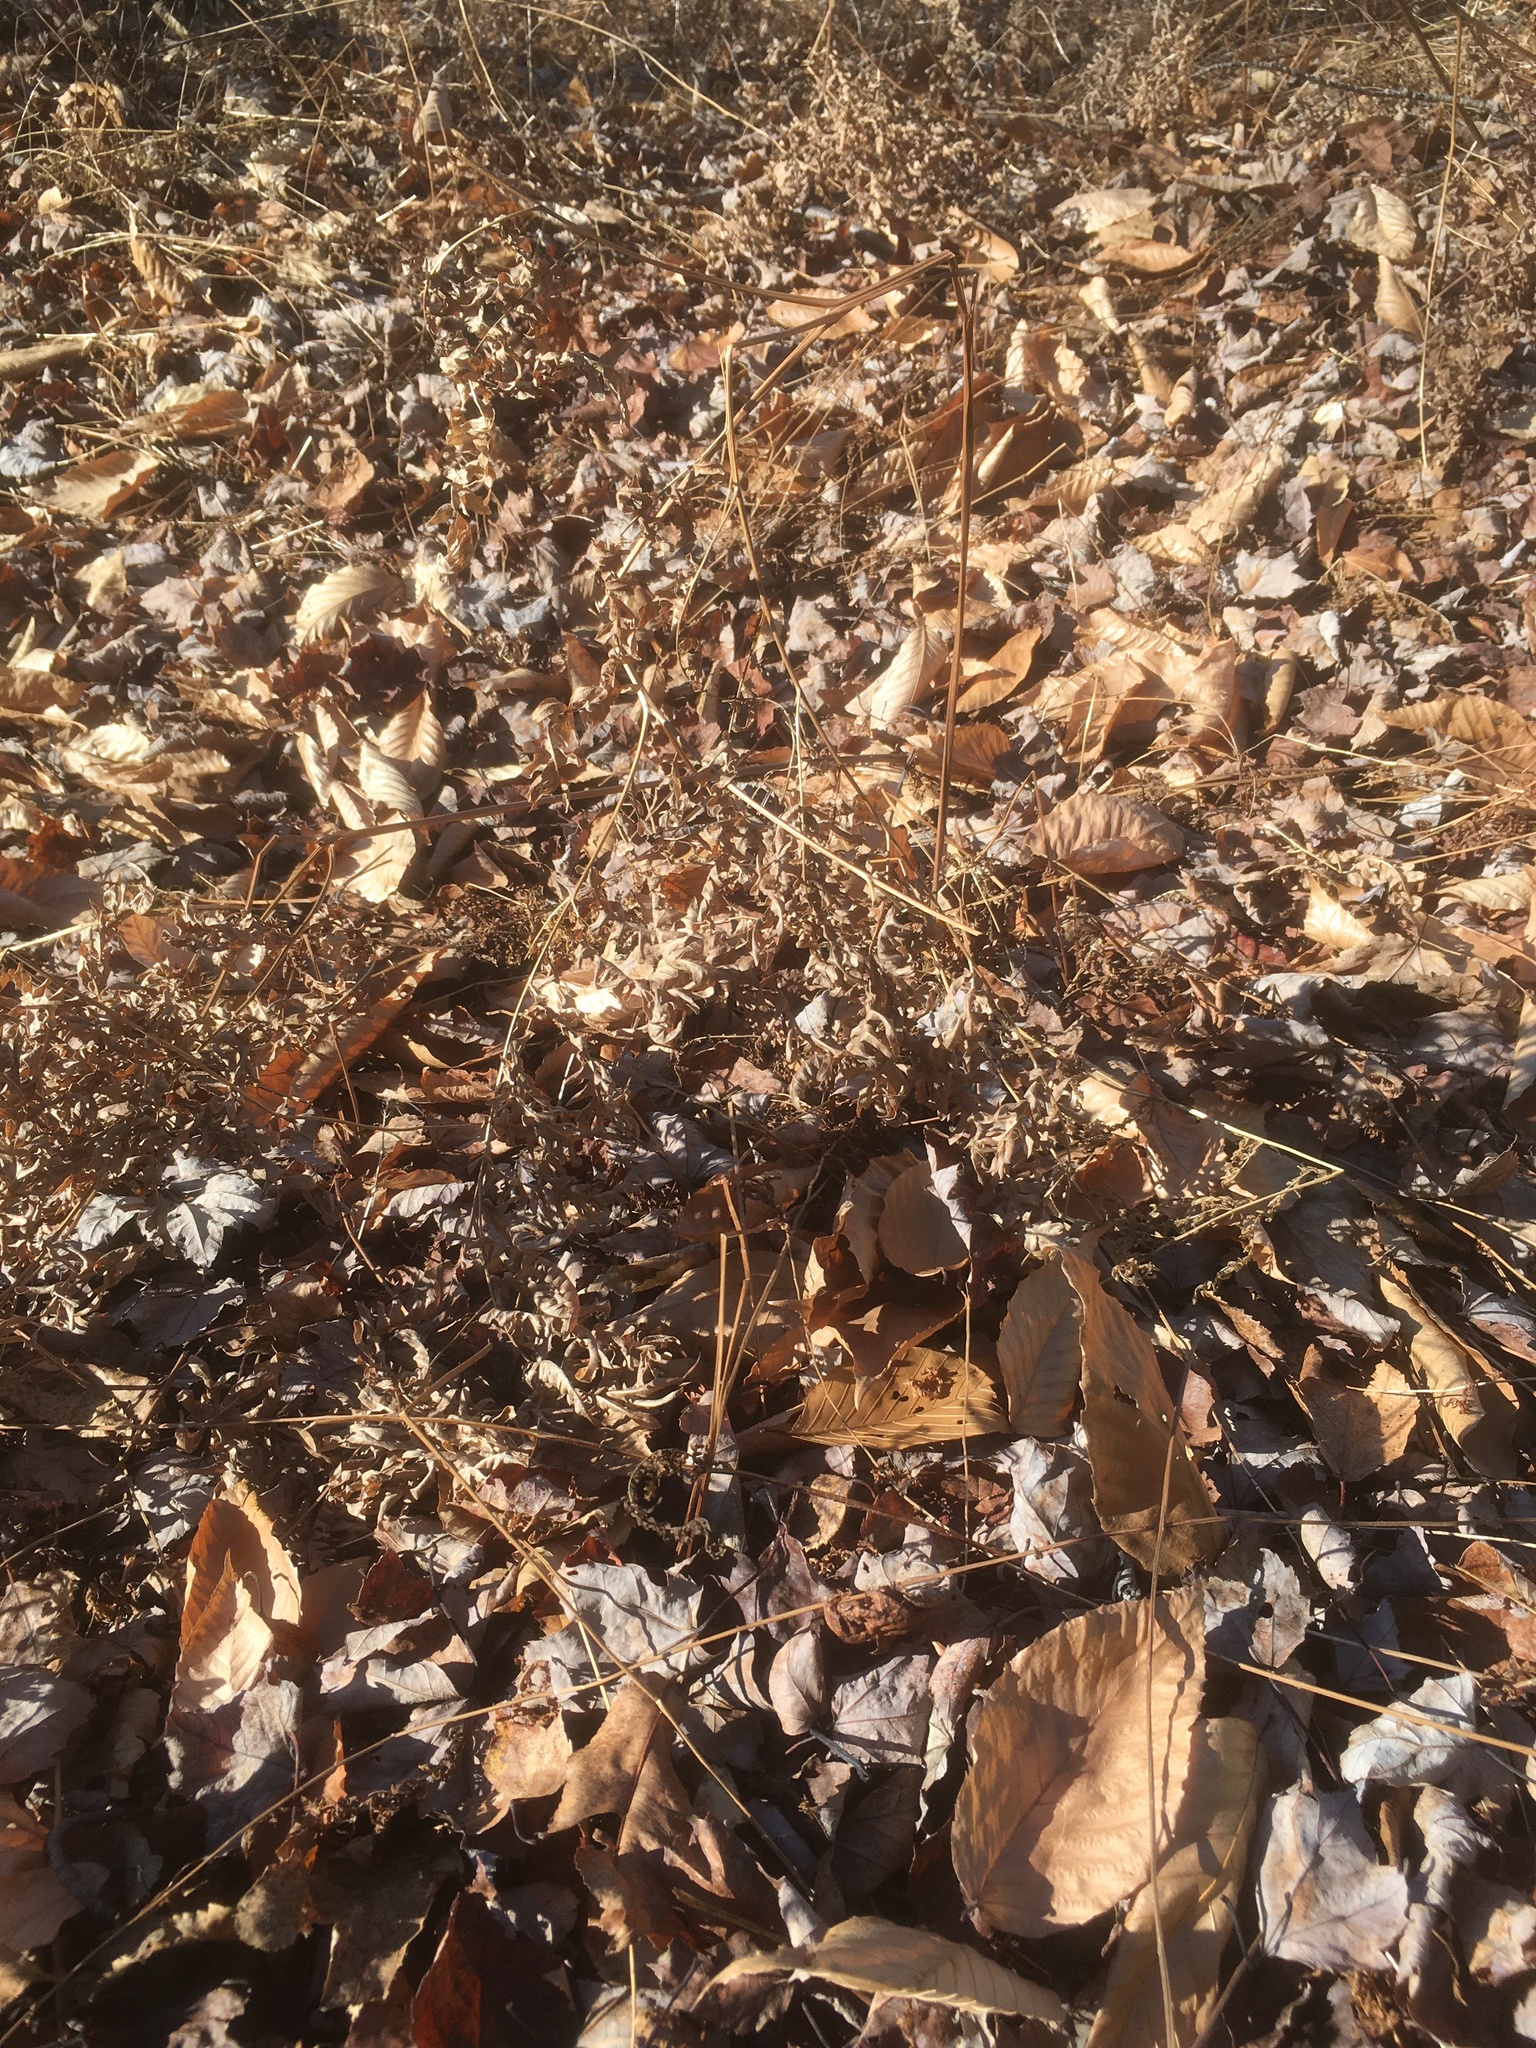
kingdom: Plantae
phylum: Tracheophyta
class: Polypodiopsida
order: Polypodiales
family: Dennstaedtiaceae
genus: Pteridium
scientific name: Pteridium aquilinum
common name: Bracken
